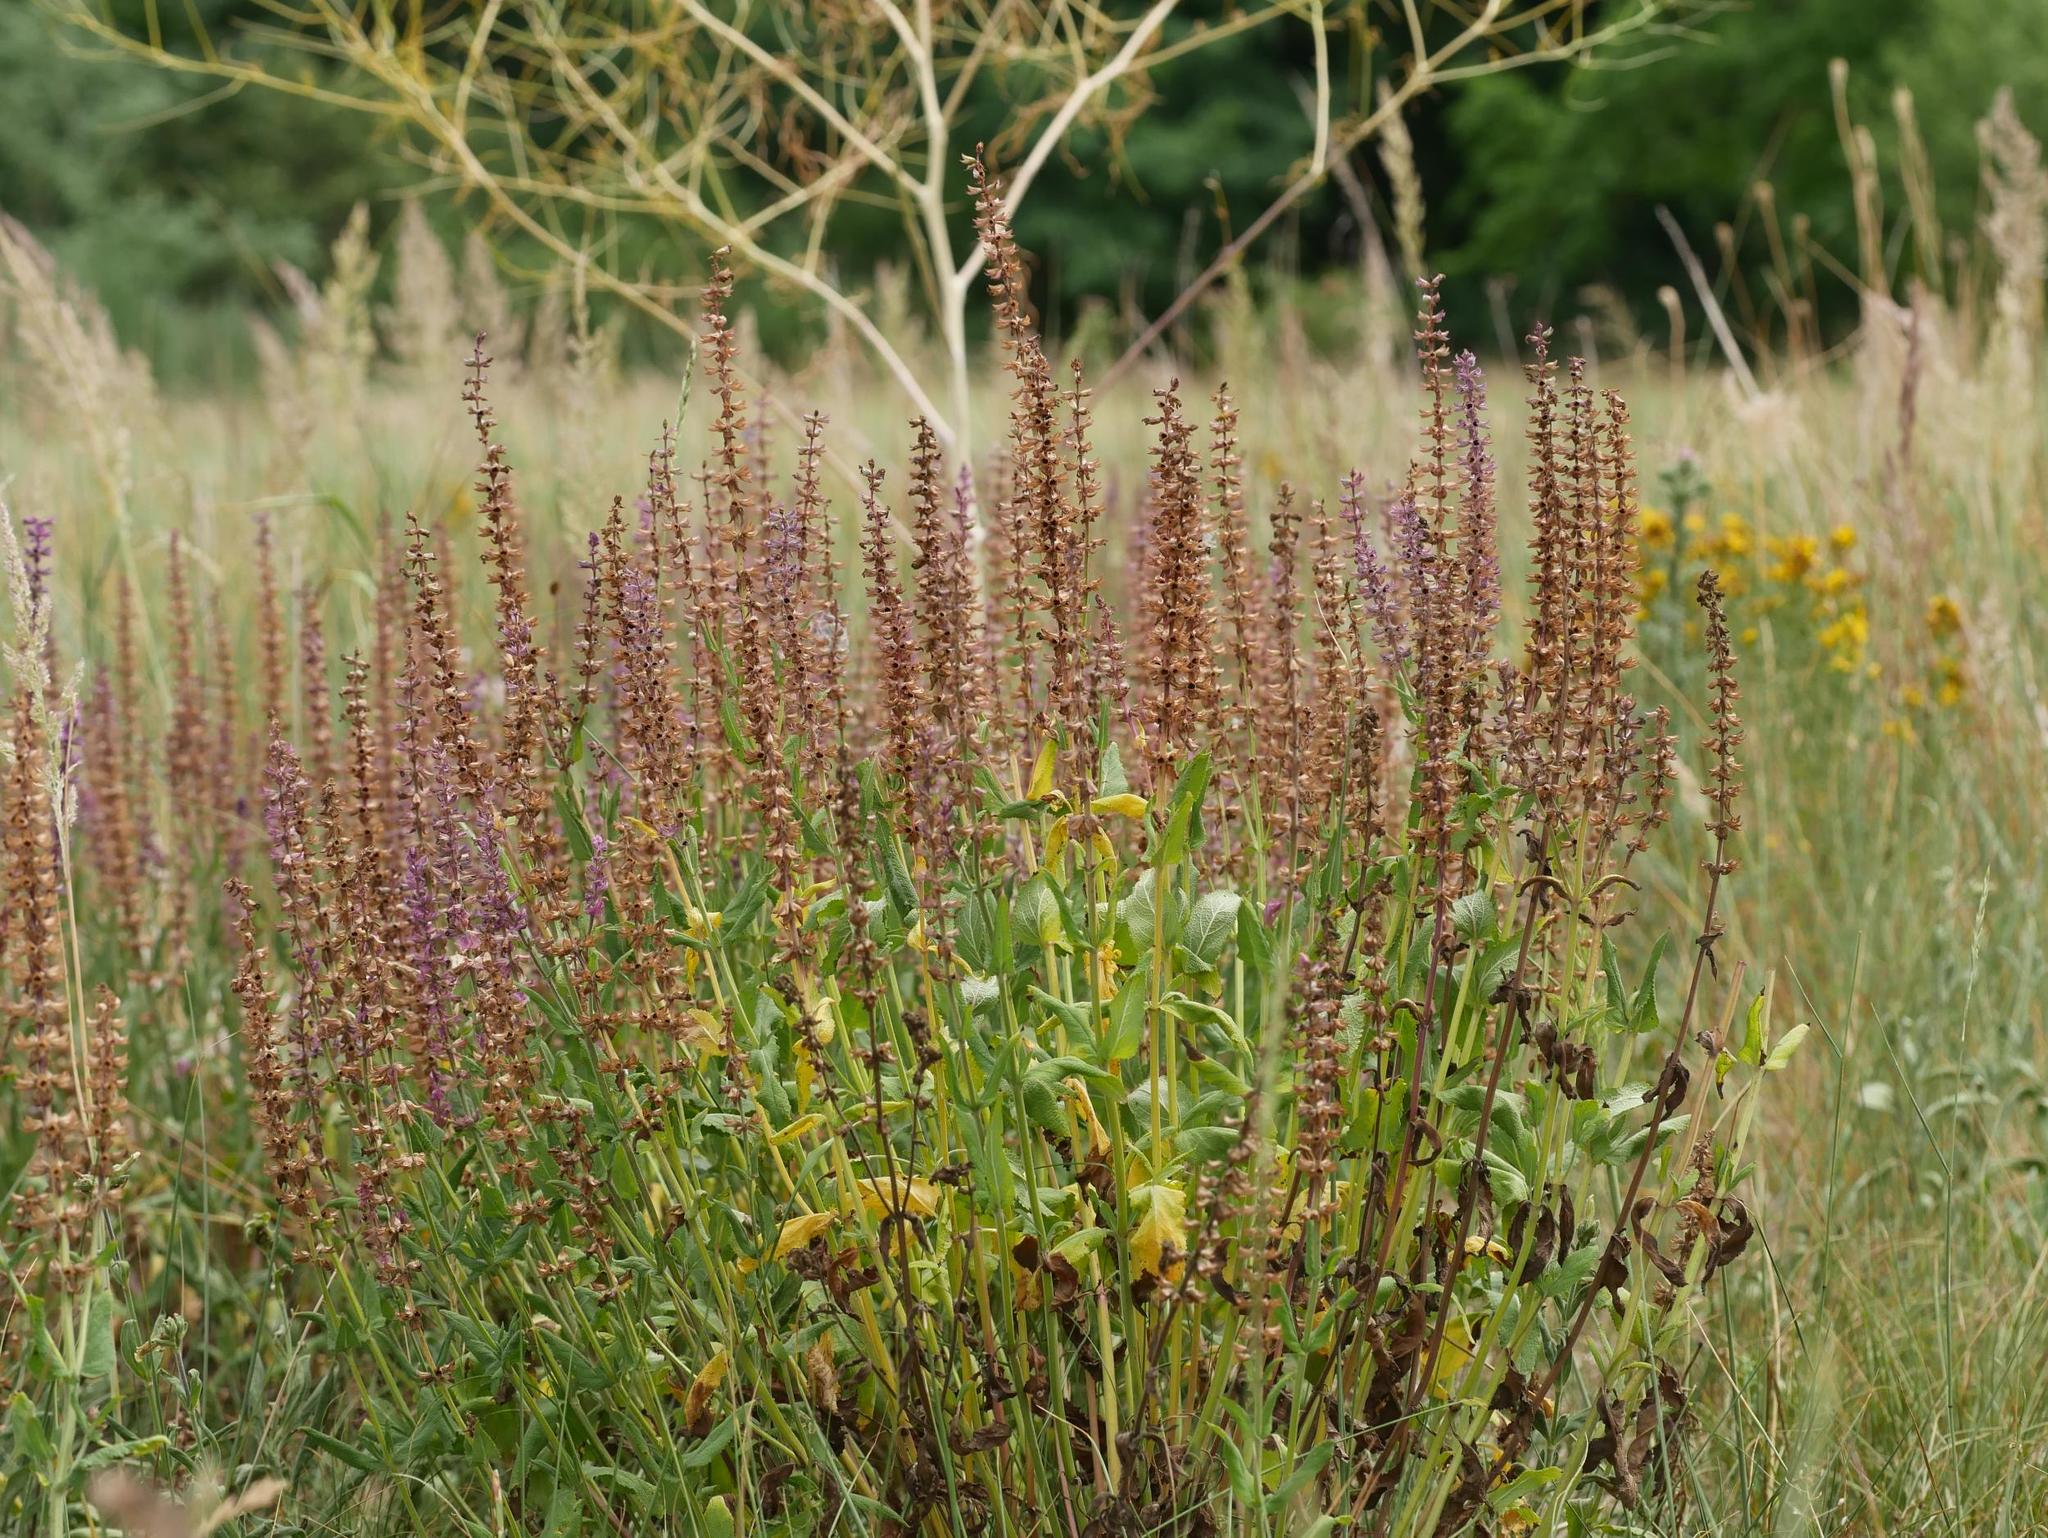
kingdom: Plantae
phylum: Tracheophyta
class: Magnoliopsida
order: Lamiales
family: Lamiaceae
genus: Salvia
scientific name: Salvia nemorosa
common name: Balkan clary
